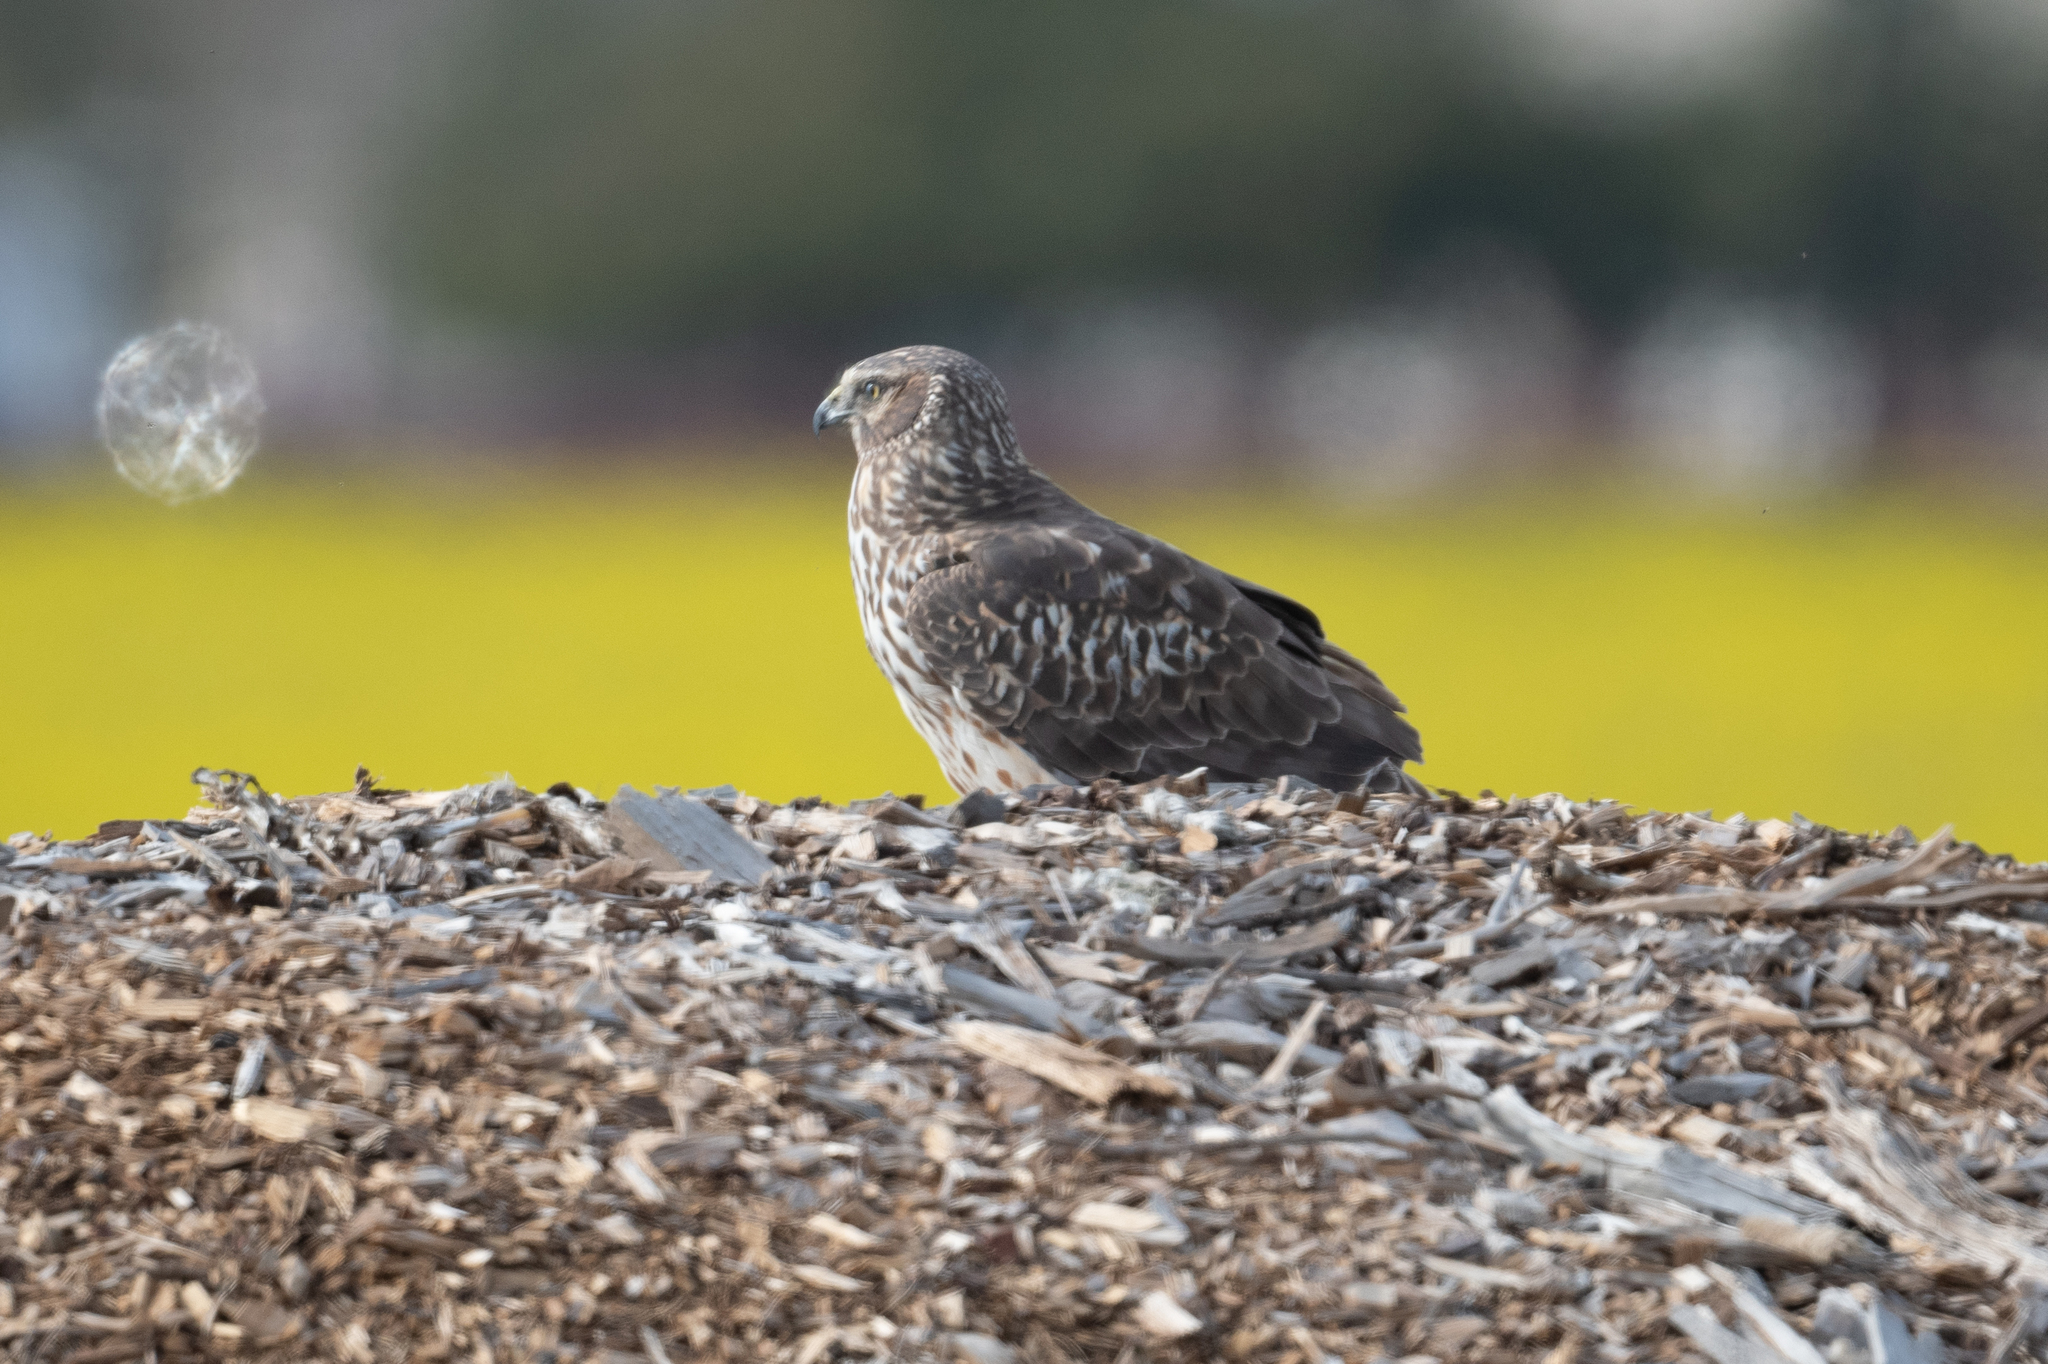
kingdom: Animalia
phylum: Chordata
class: Aves
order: Accipitriformes
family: Accipitridae
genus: Circus
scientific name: Circus cyaneus
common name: Hen harrier
